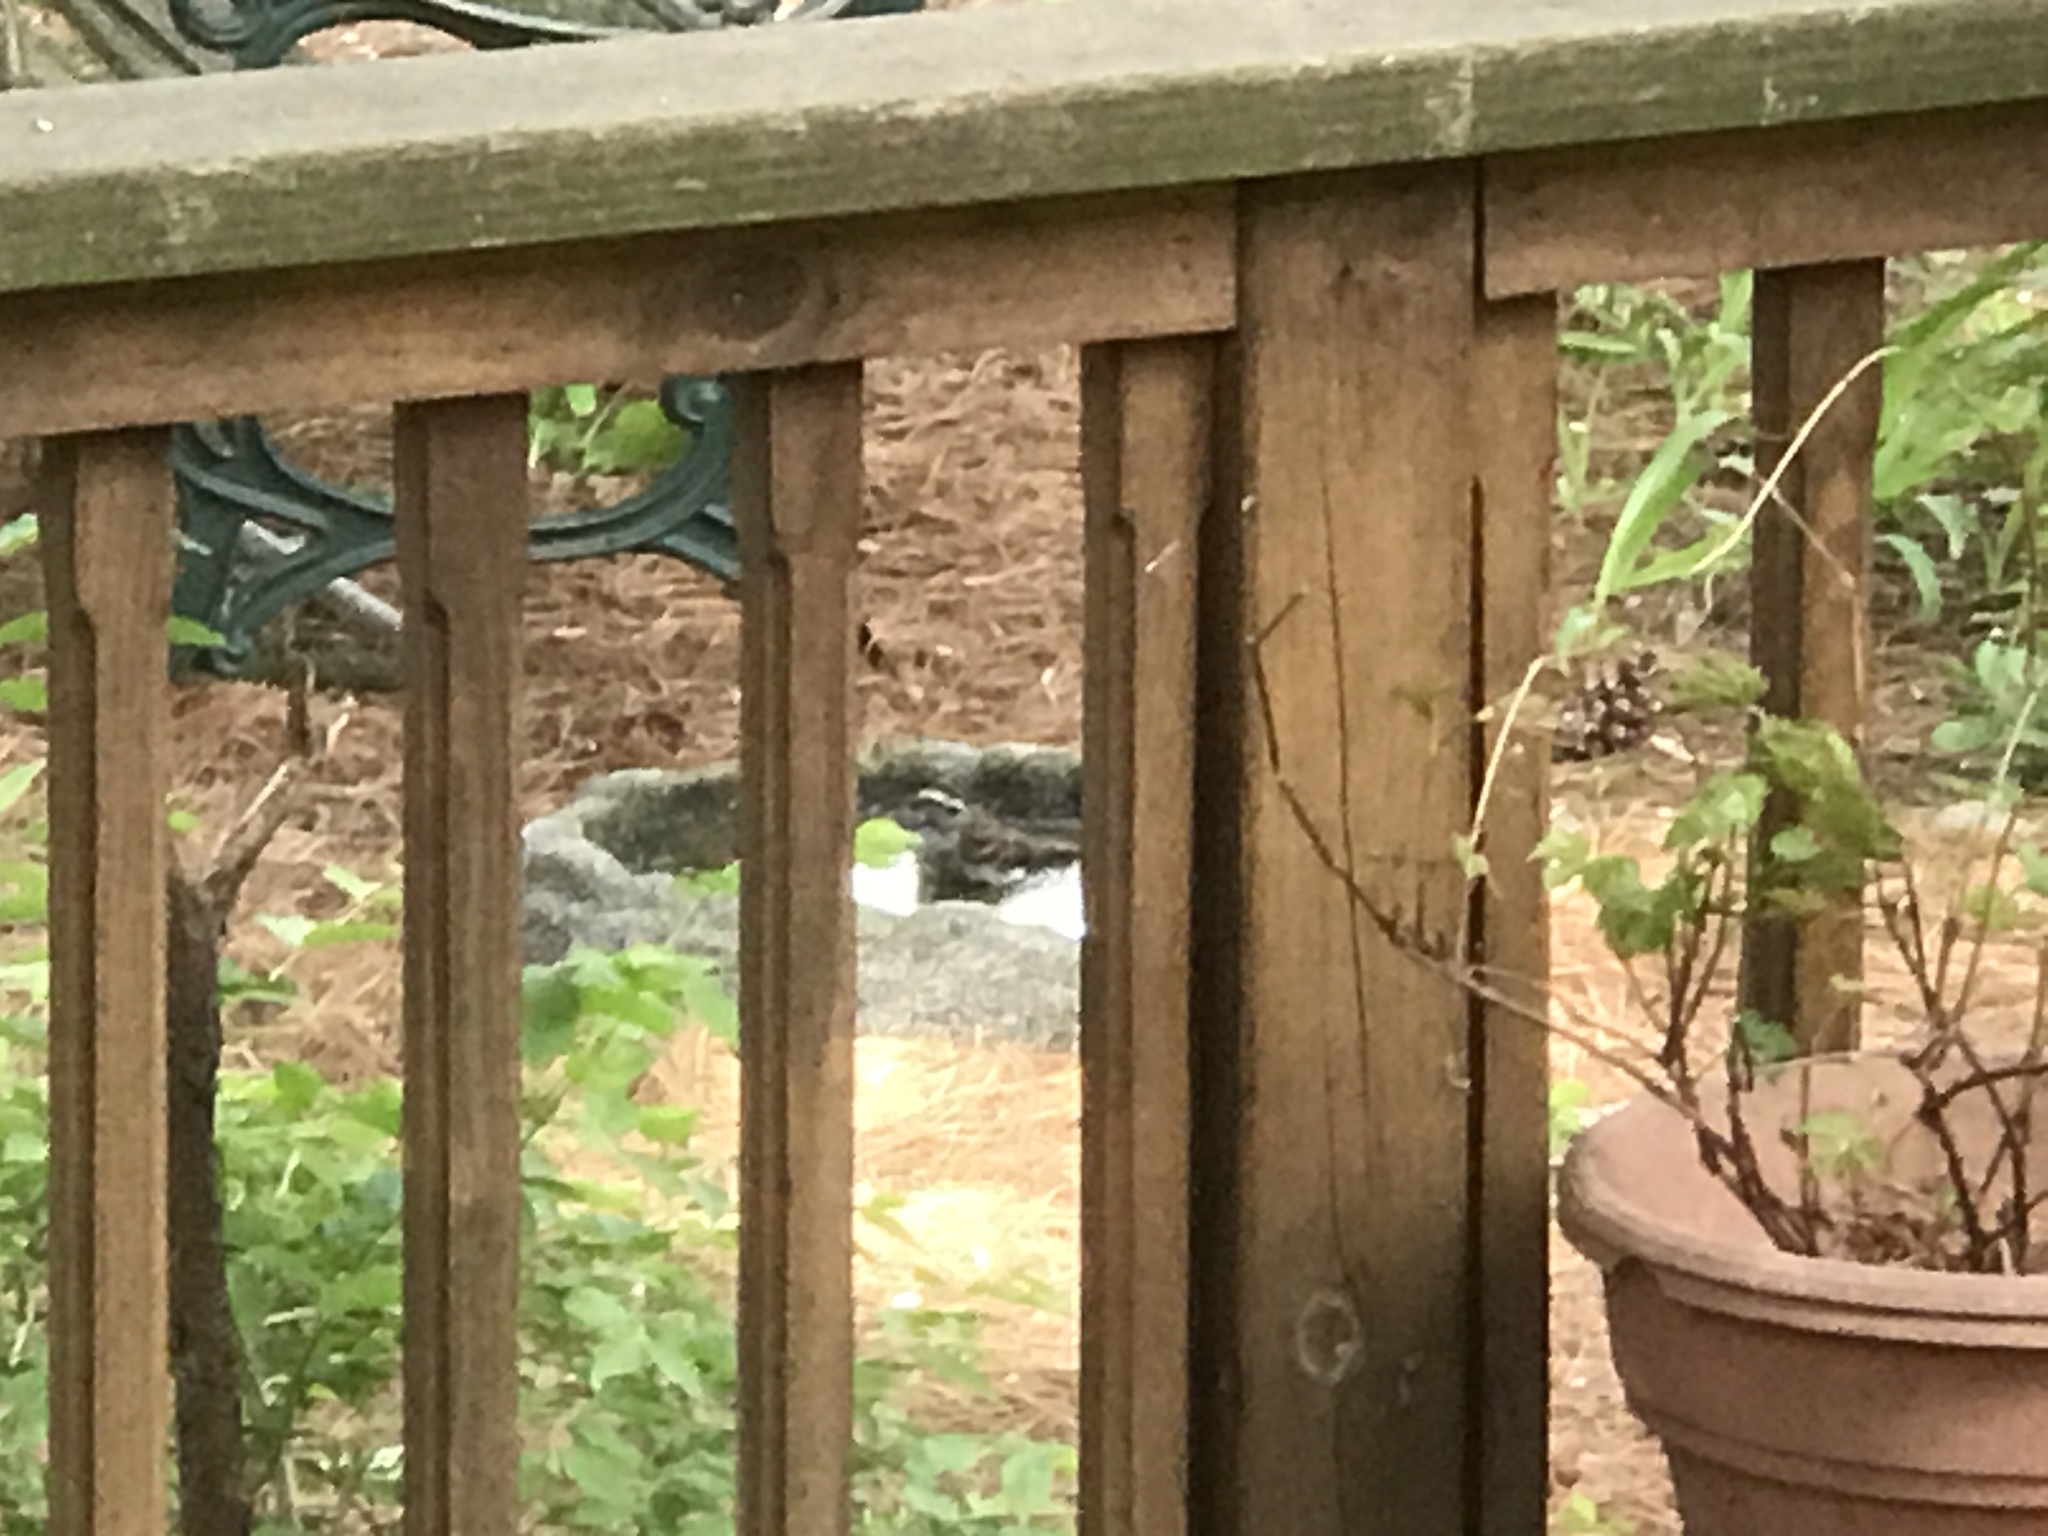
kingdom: Animalia
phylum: Chordata
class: Aves
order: Passeriformes
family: Passerellidae
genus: Zonotrichia
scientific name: Zonotrichia albicollis
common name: White-throated sparrow
